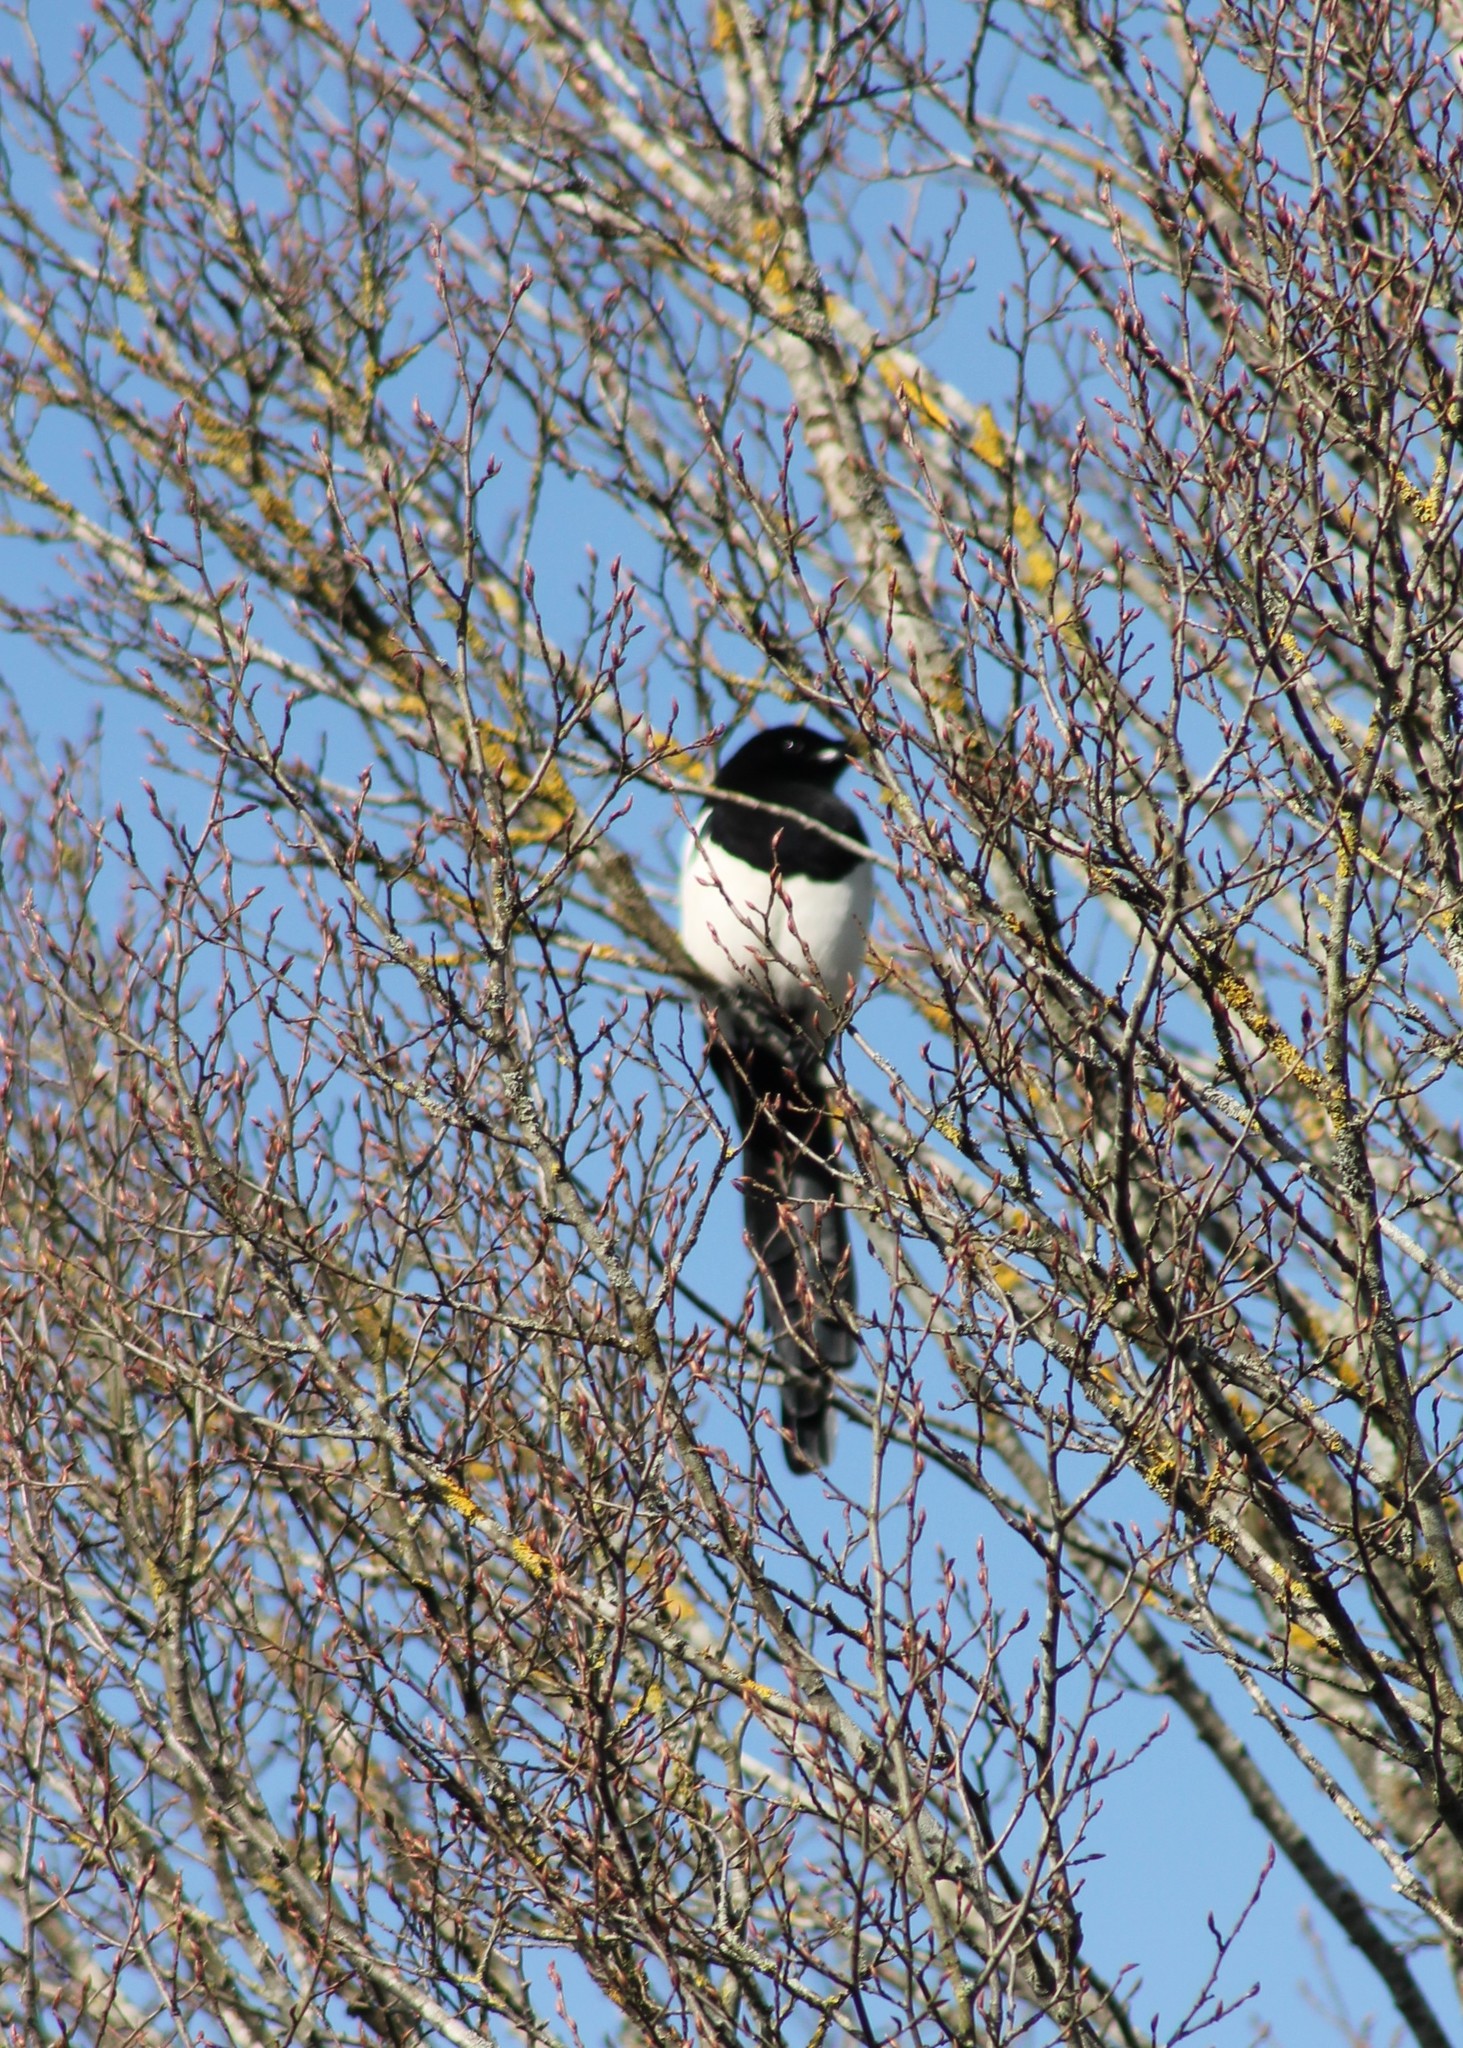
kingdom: Animalia
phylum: Chordata
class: Aves
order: Passeriformes
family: Corvidae
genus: Pica
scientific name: Pica pica
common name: Eurasian magpie
